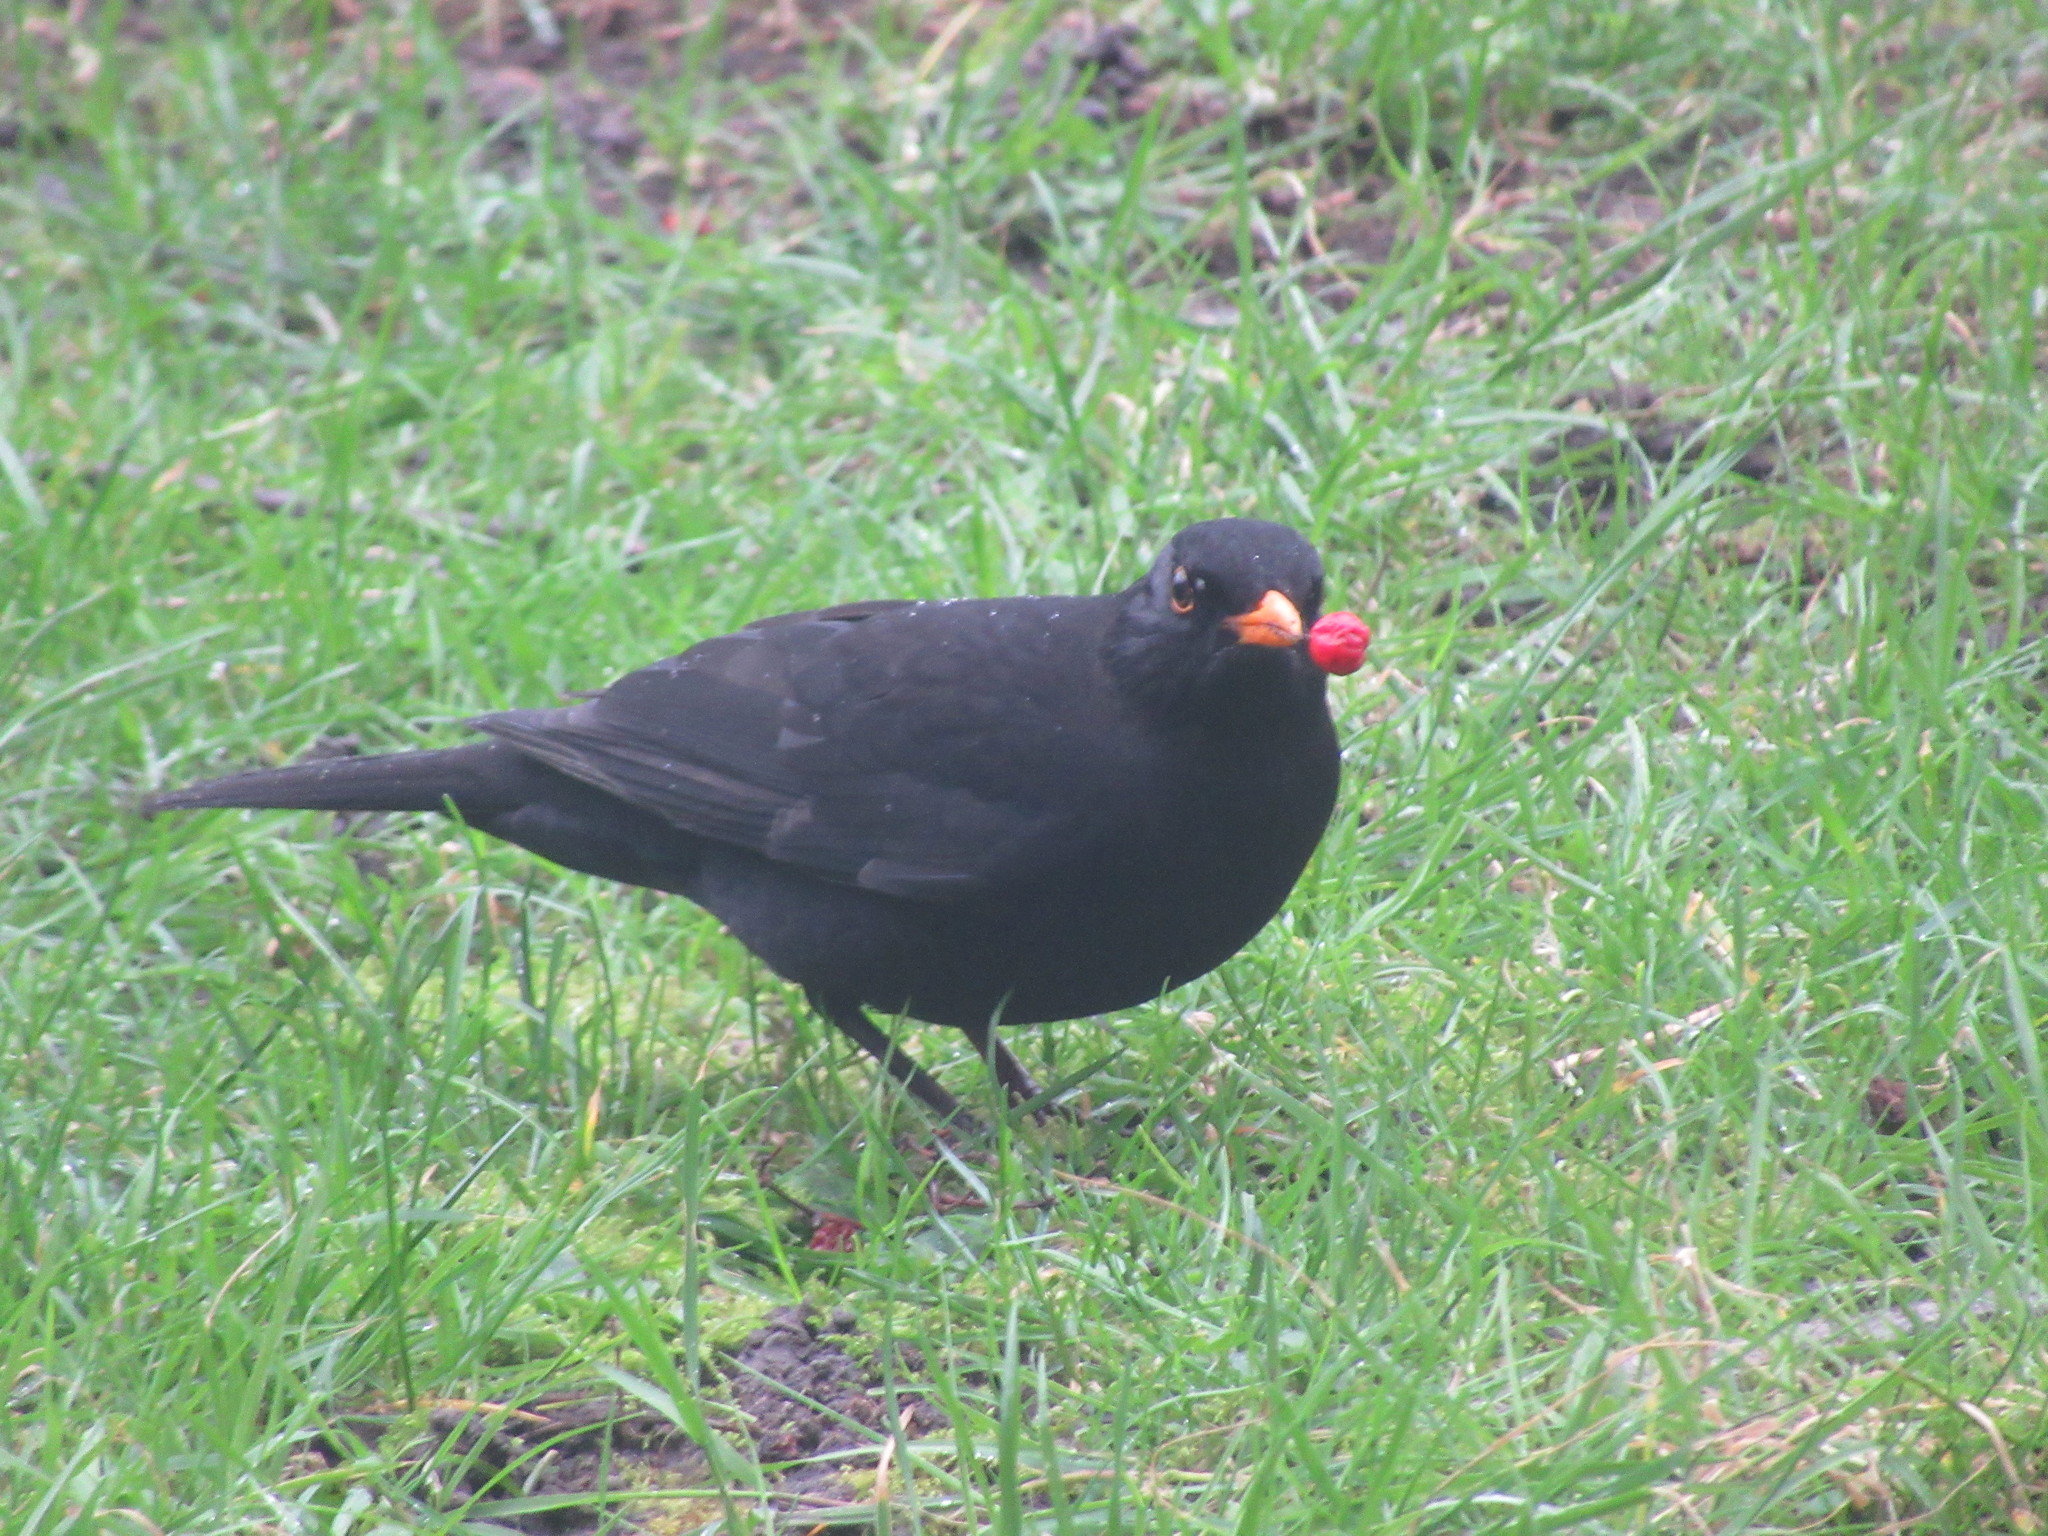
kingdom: Animalia
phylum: Chordata
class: Aves
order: Passeriformes
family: Turdidae
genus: Turdus
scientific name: Turdus merula
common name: Common blackbird
